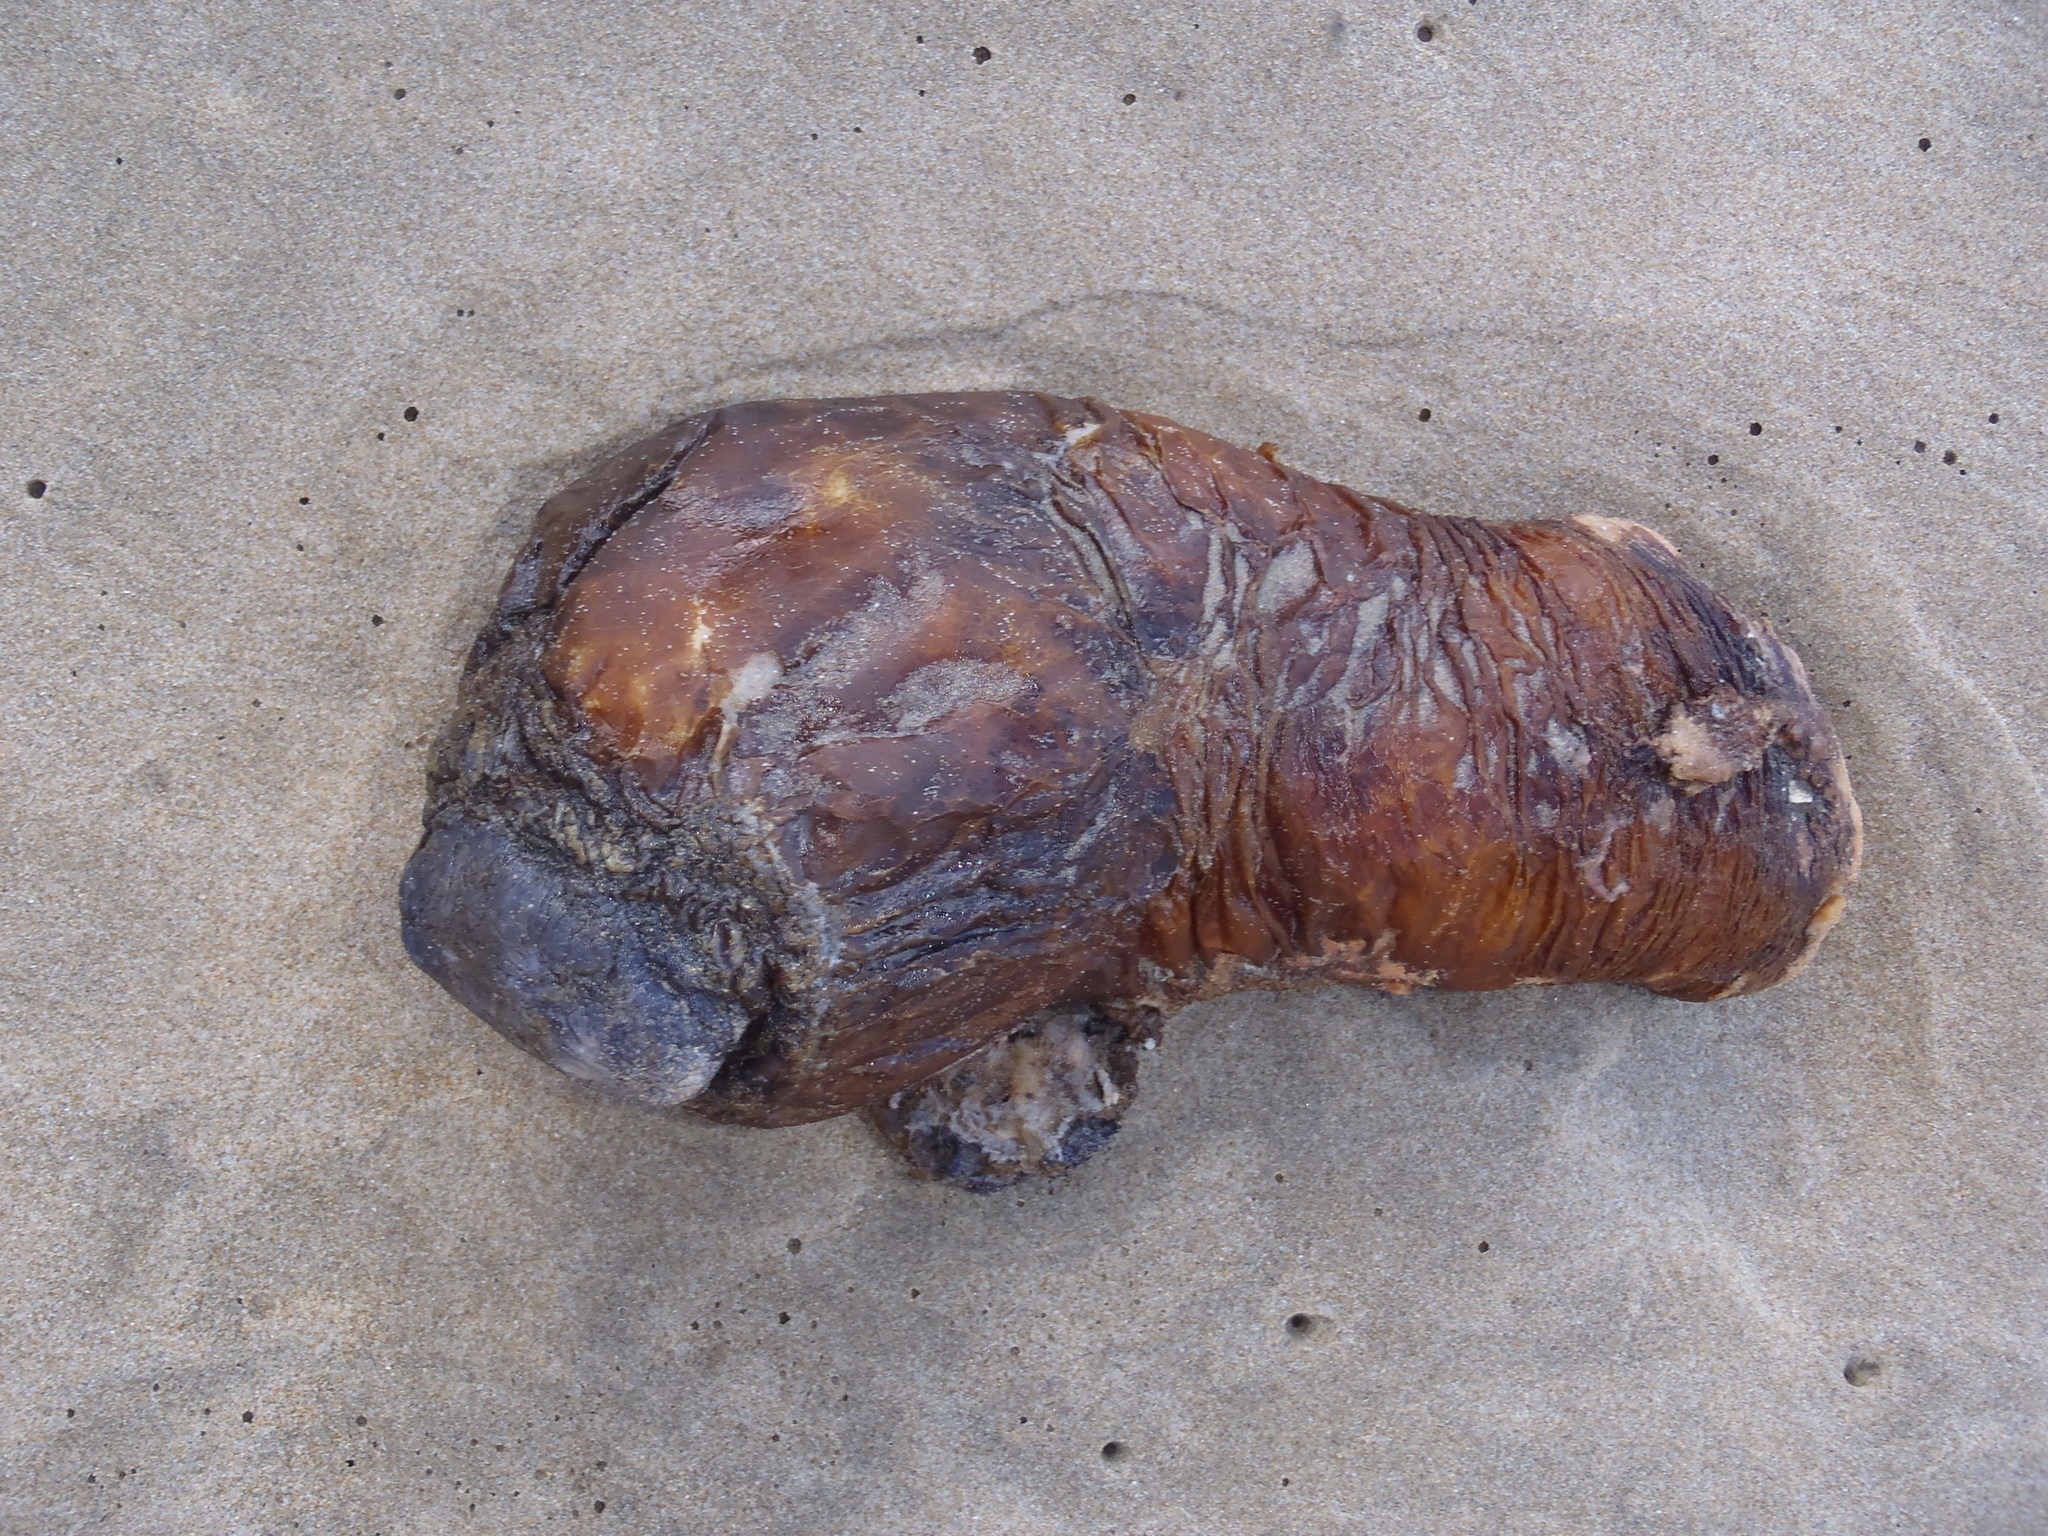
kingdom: Animalia
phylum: Chordata
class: Ascidiacea
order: Stolidobranchia
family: Pyuridae
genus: Pyura
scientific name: Pyura stolonifera
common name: Red bait
